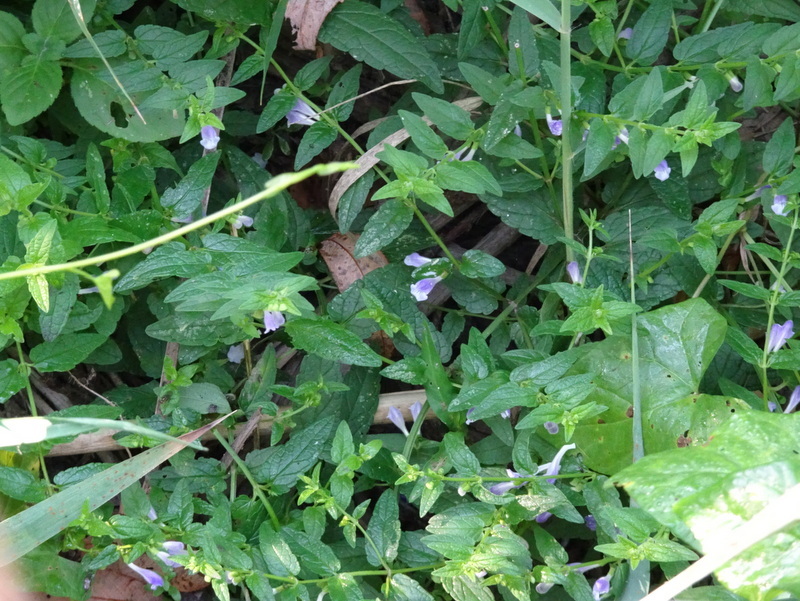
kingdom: Plantae
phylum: Tracheophyta
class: Magnoliopsida
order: Lamiales
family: Lamiaceae
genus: Scutellaria
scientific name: Scutellaria galericulata
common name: Skullcap
